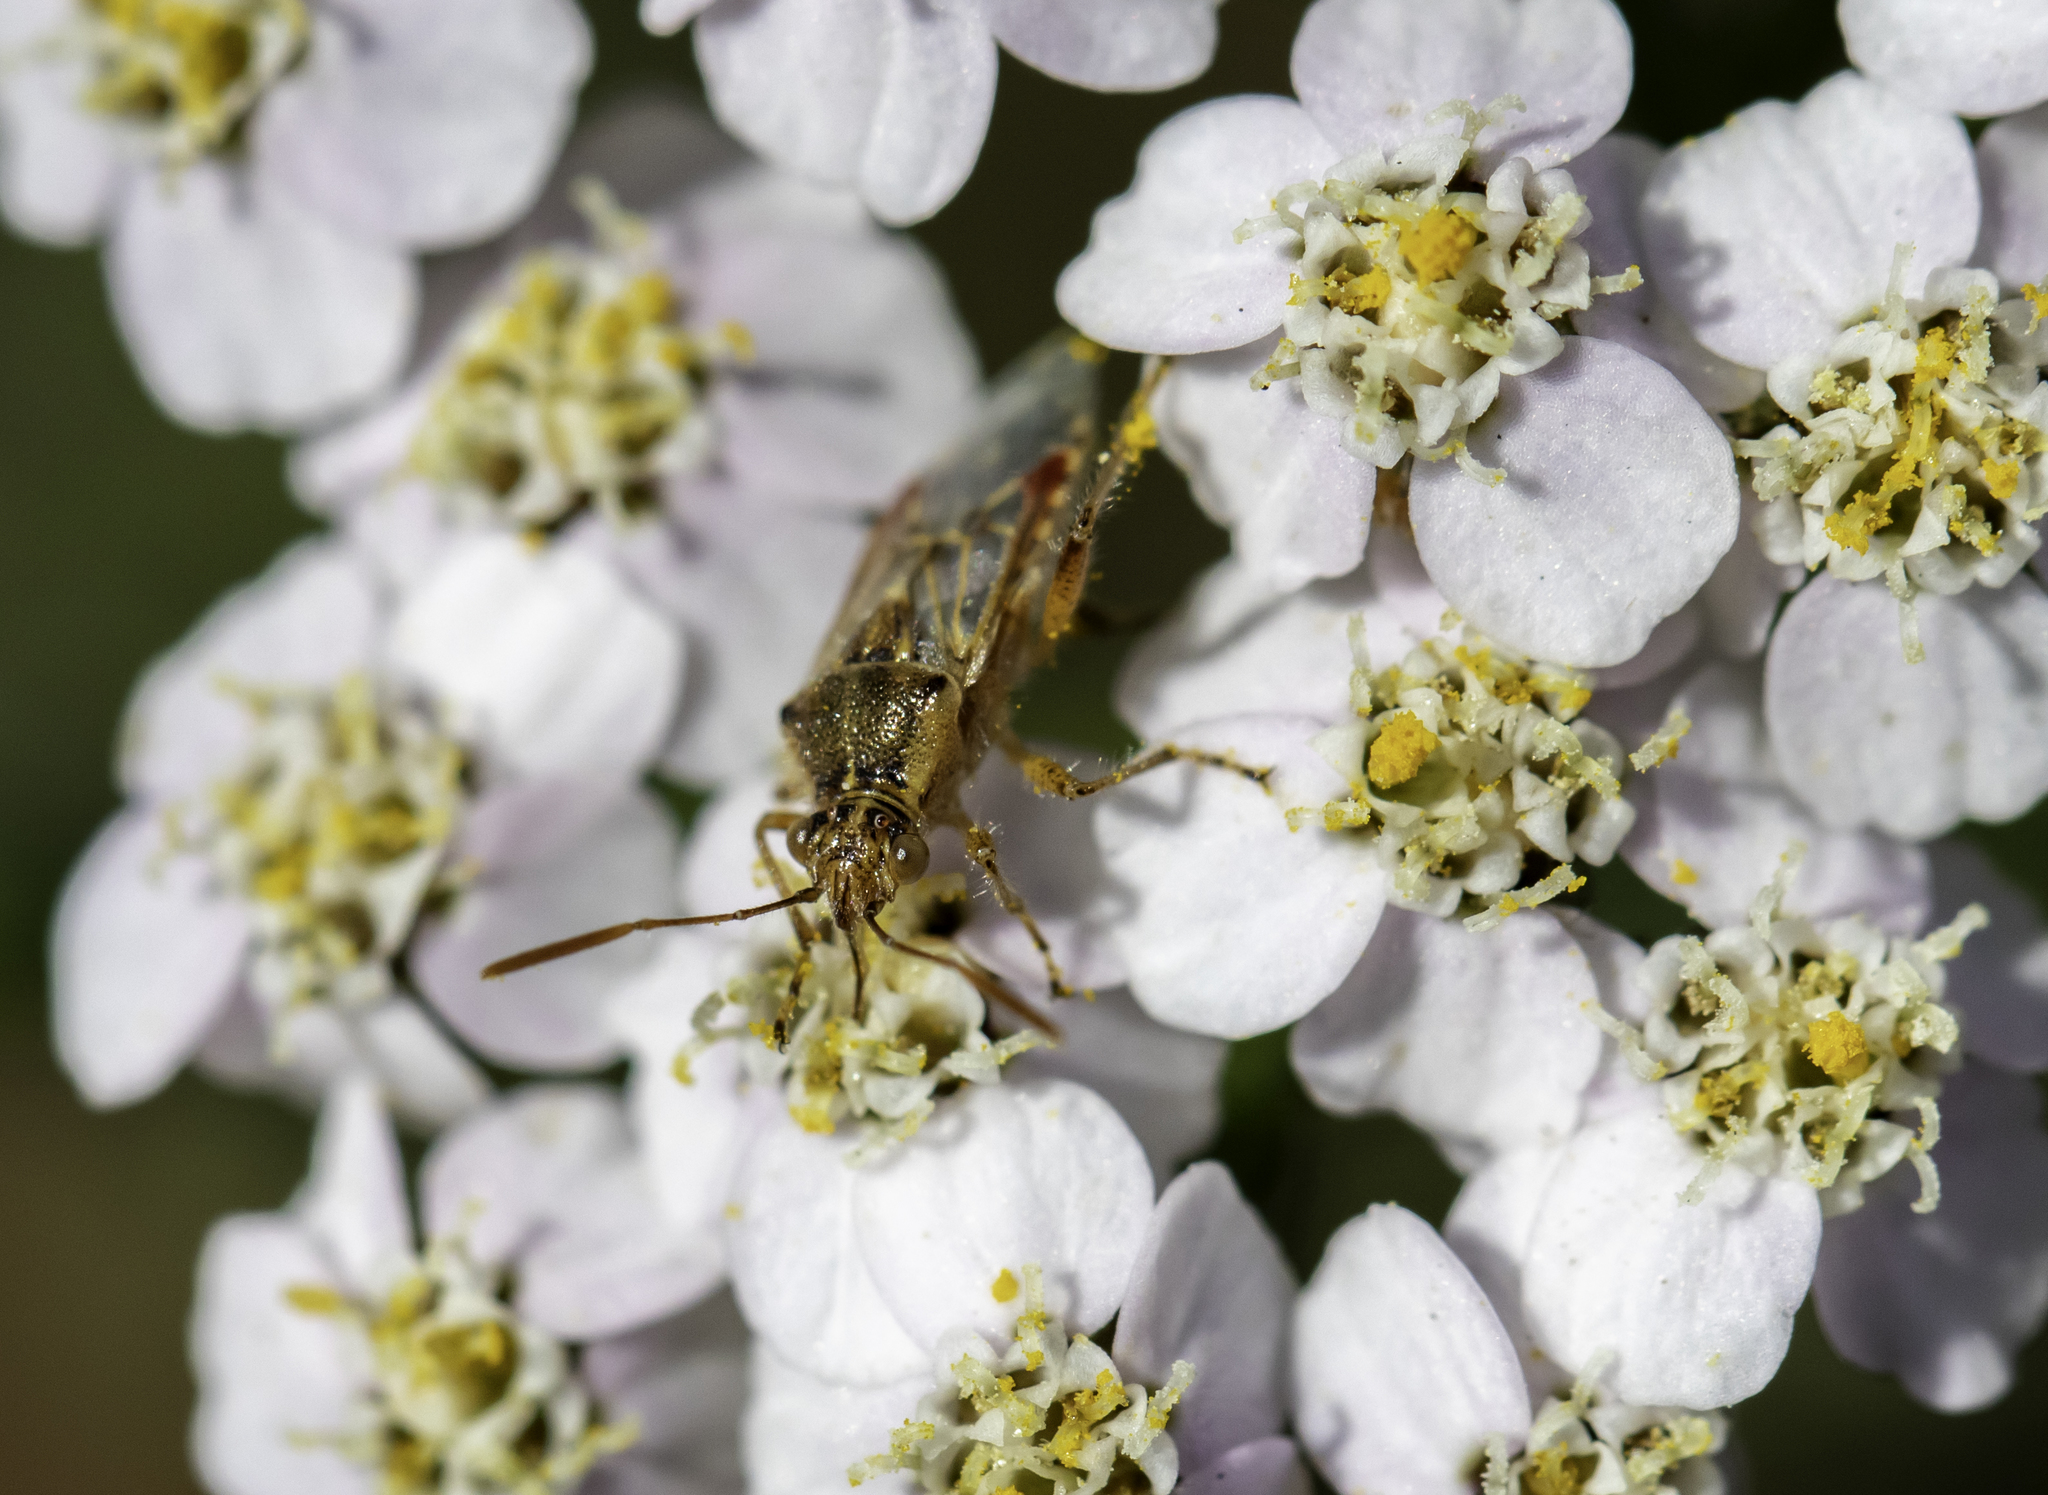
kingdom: Animalia
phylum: Arthropoda
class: Insecta
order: Hemiptera
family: Rhopalidae
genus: Liorhyssus
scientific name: Liorhyssus hyalinus
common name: Scentless plant bug
